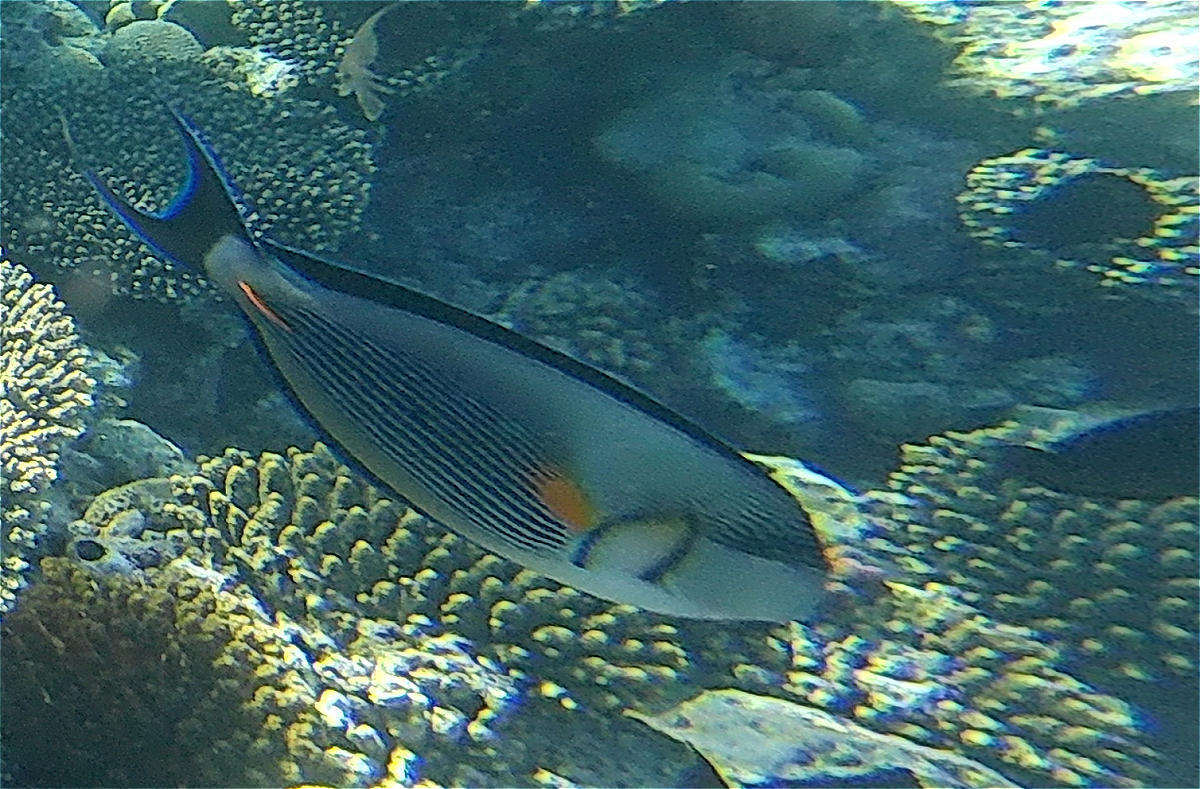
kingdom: Animalia
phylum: Chordata
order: Perciformes
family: Acanthuridae
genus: Acanthurus
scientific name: Acanthurus sohal
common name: Red sea surgeonfish
